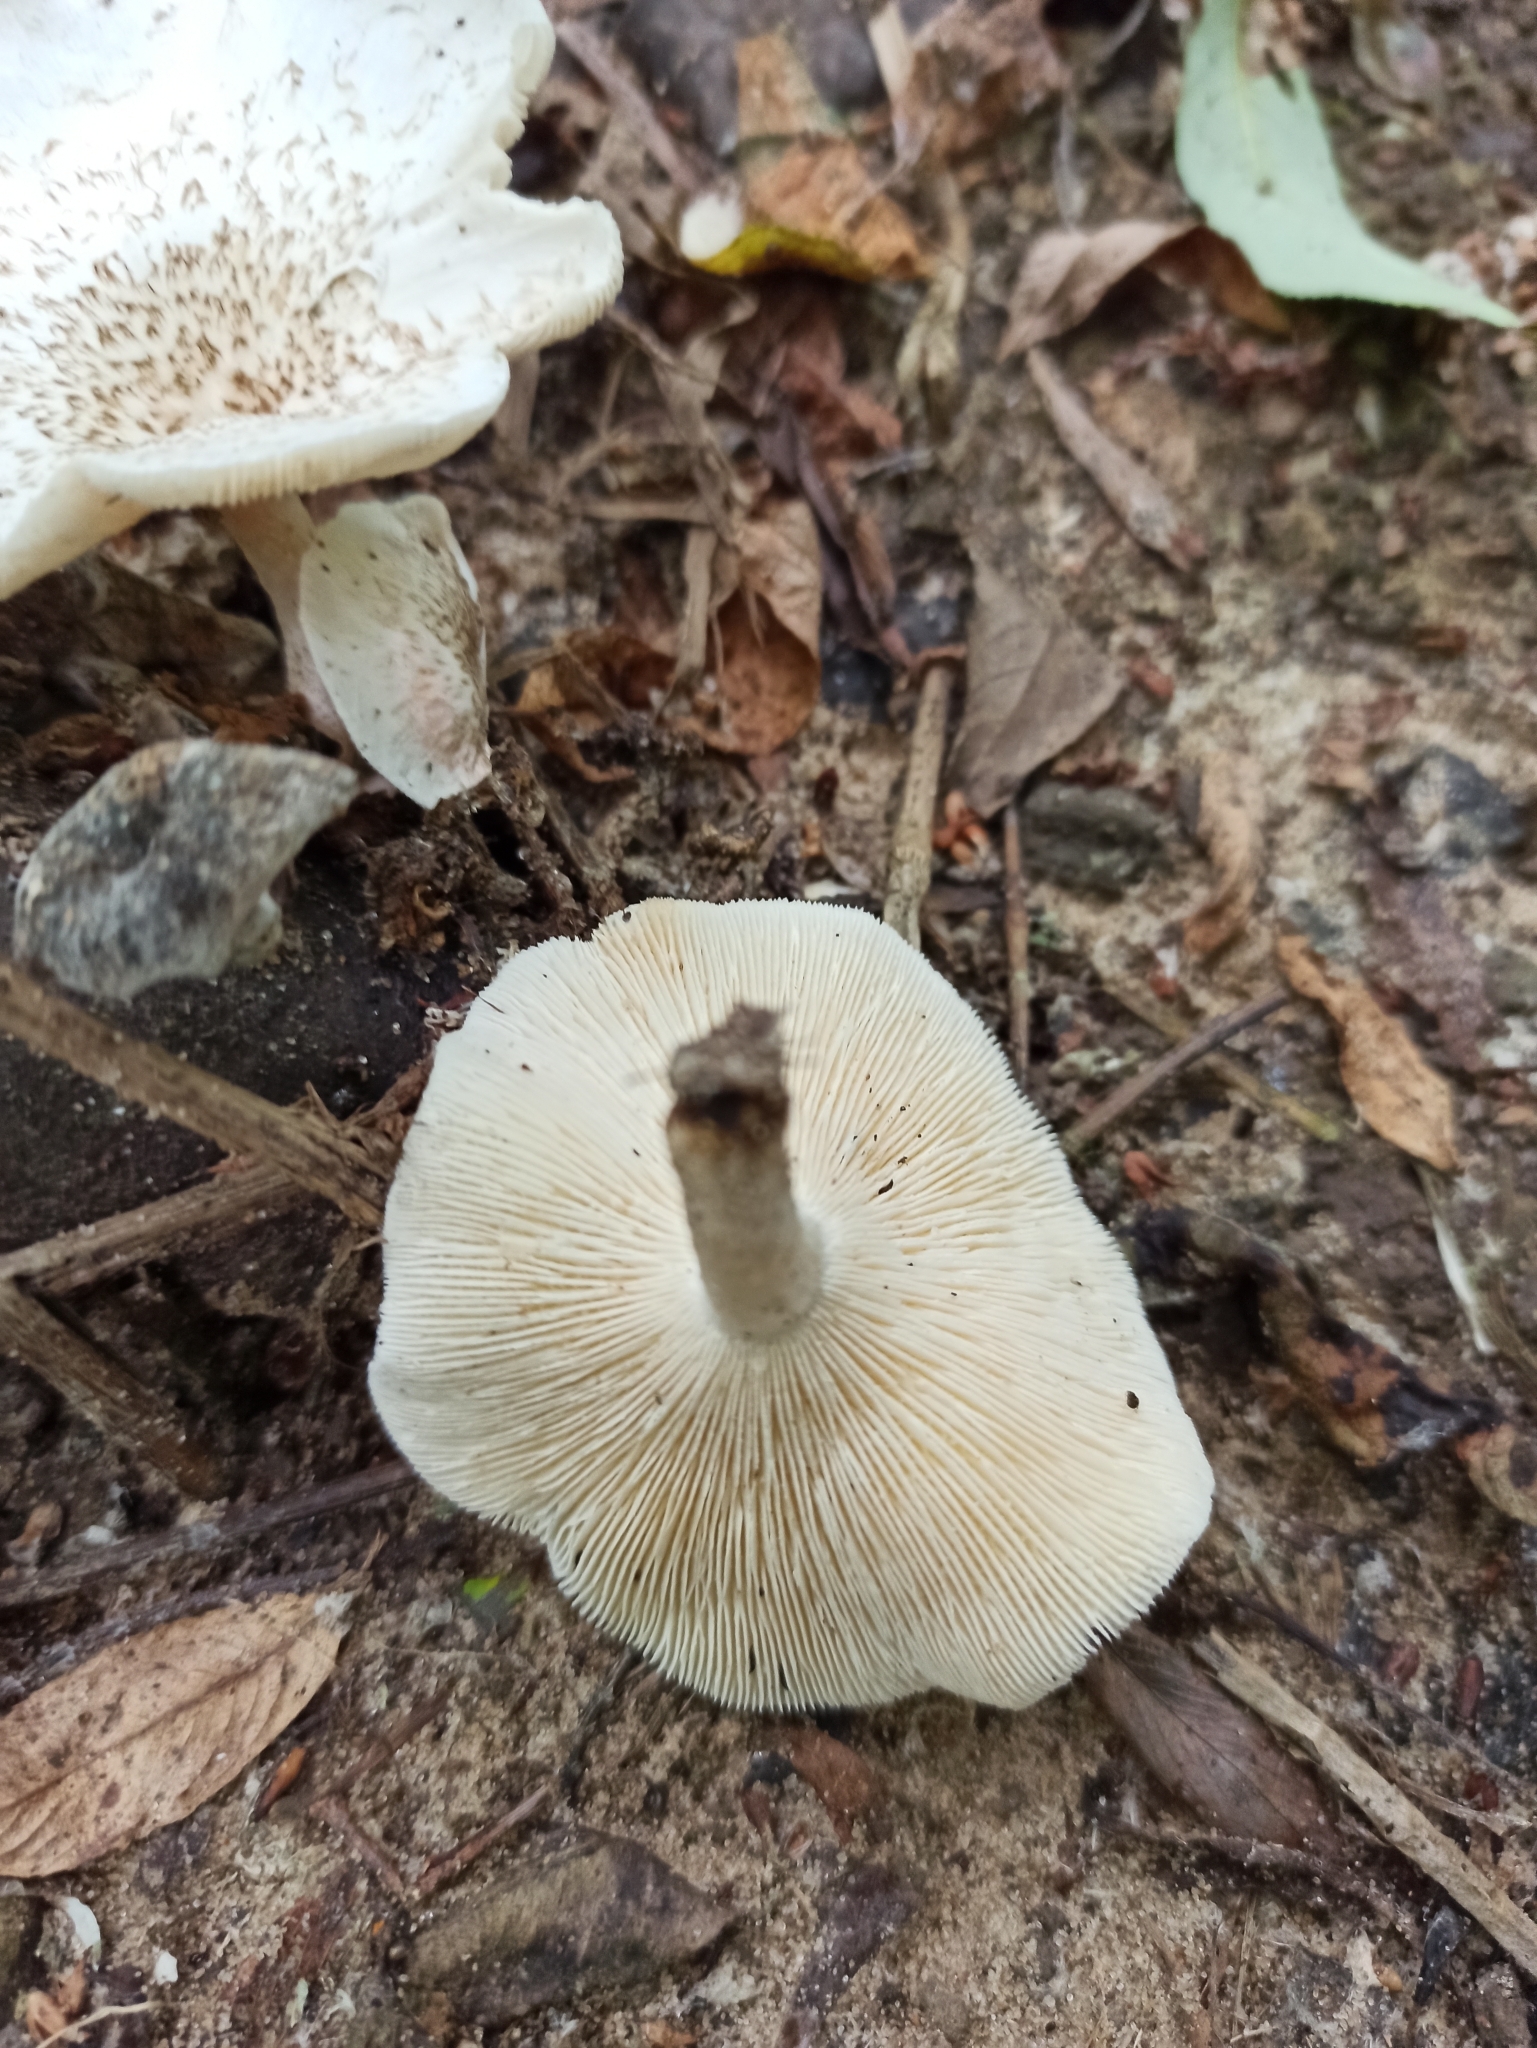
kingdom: Fungi
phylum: Basidiomycota
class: Agaricomycetes
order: Polyporales
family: Polyporaceae
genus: Lentinus
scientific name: Lentinus tigrinus
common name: Tiger sawgill
